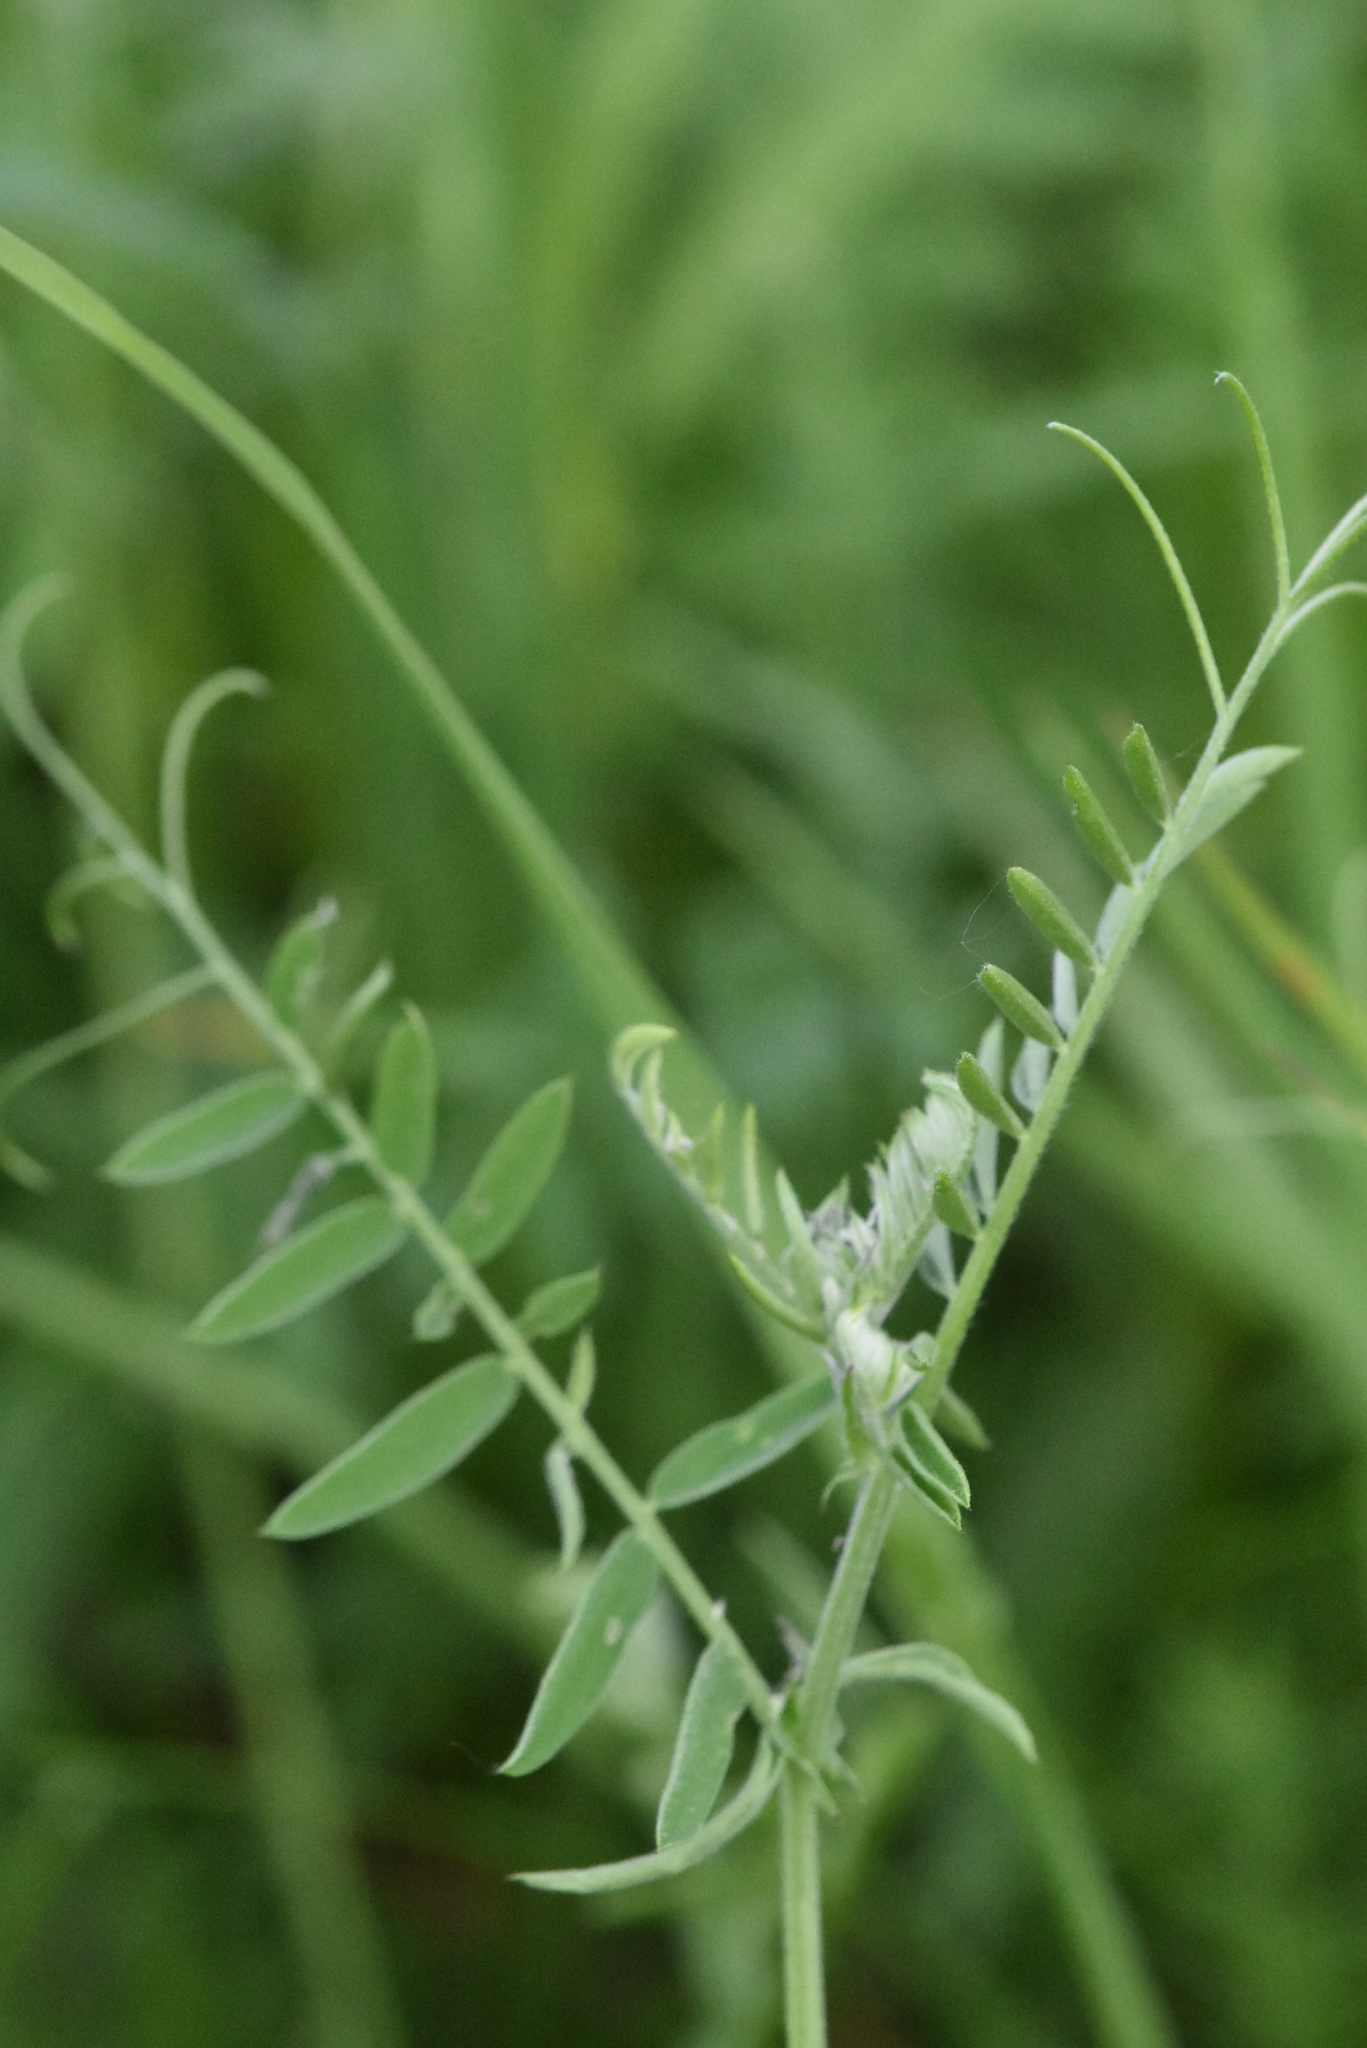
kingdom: Plantae
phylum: Tracheophyta
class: Magnoliopsida
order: Fabales
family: Fabaceae
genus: Vicia
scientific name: Vicia cracca
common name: Bird vetch
